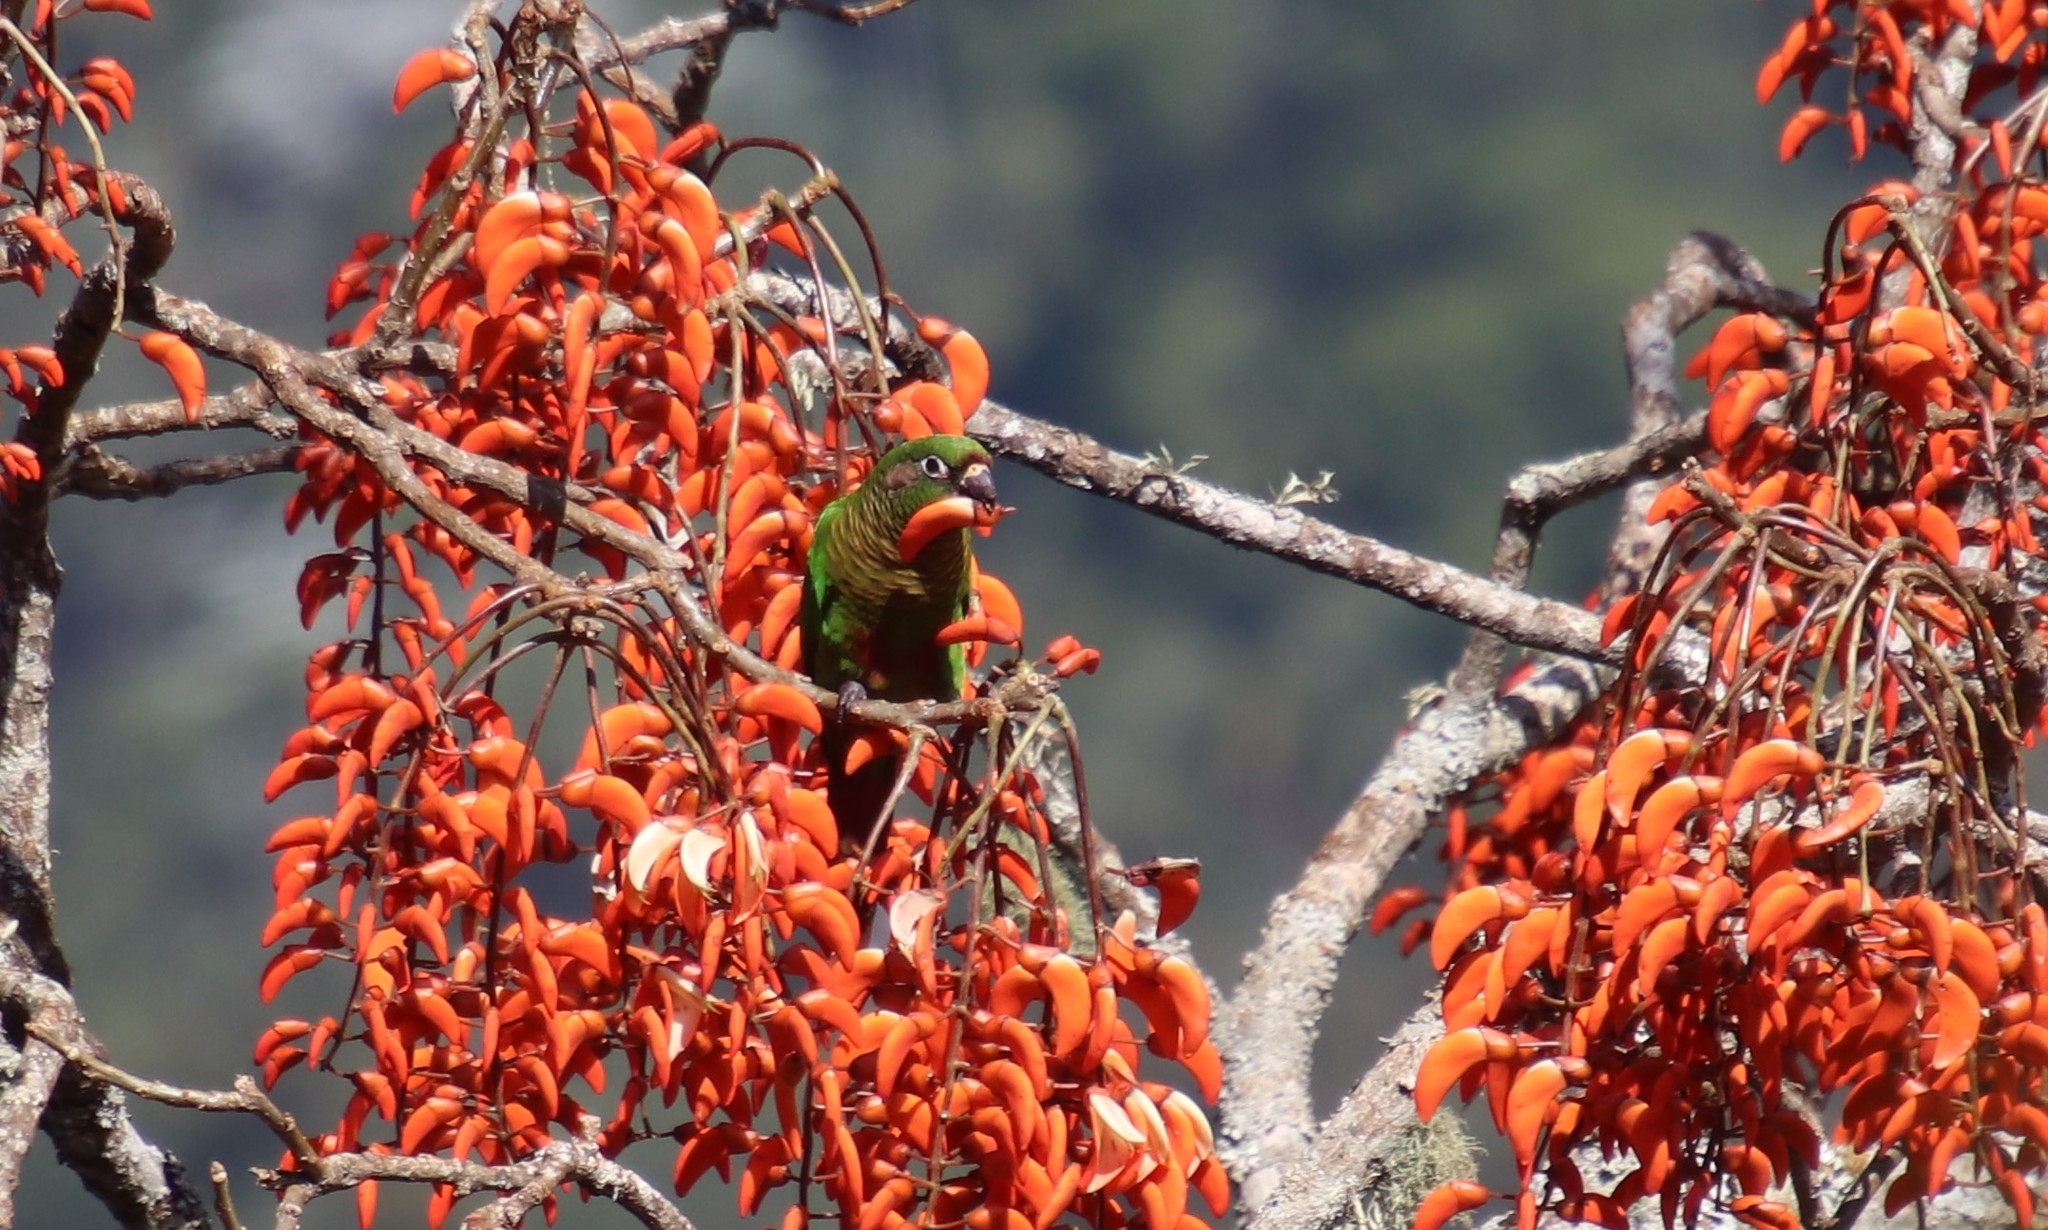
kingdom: Animalia
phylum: Chordata
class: Aves
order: Psittaciformes
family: Psittacidae
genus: Pyrrhura
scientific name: Pyrrhura frontalis
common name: Maroon-bellied parakeet
